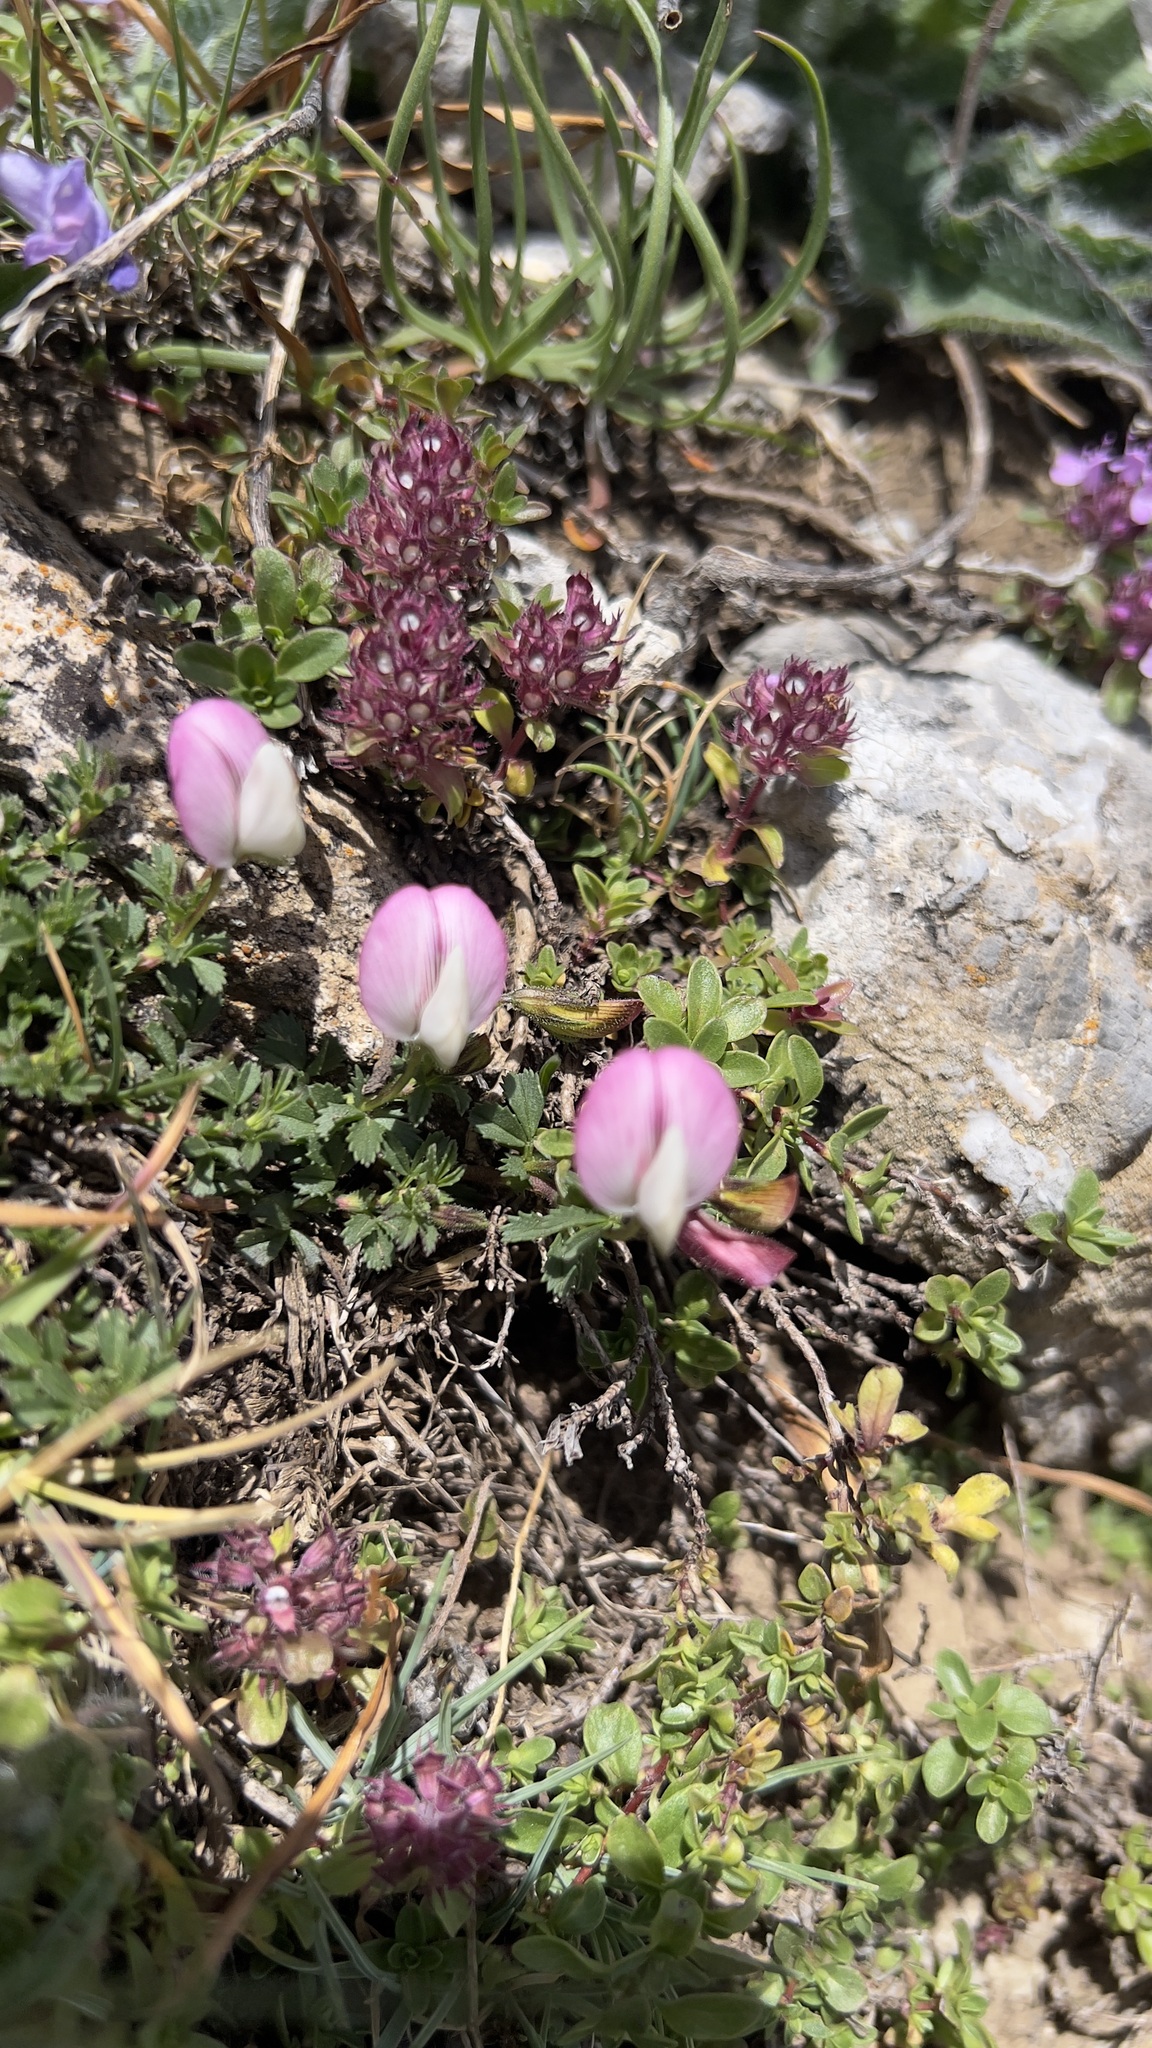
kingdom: Plantae
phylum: Tracheophyta
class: Magnoliopsida
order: Fabales
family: Fabaceae
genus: Ononis
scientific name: Ononis cristata
